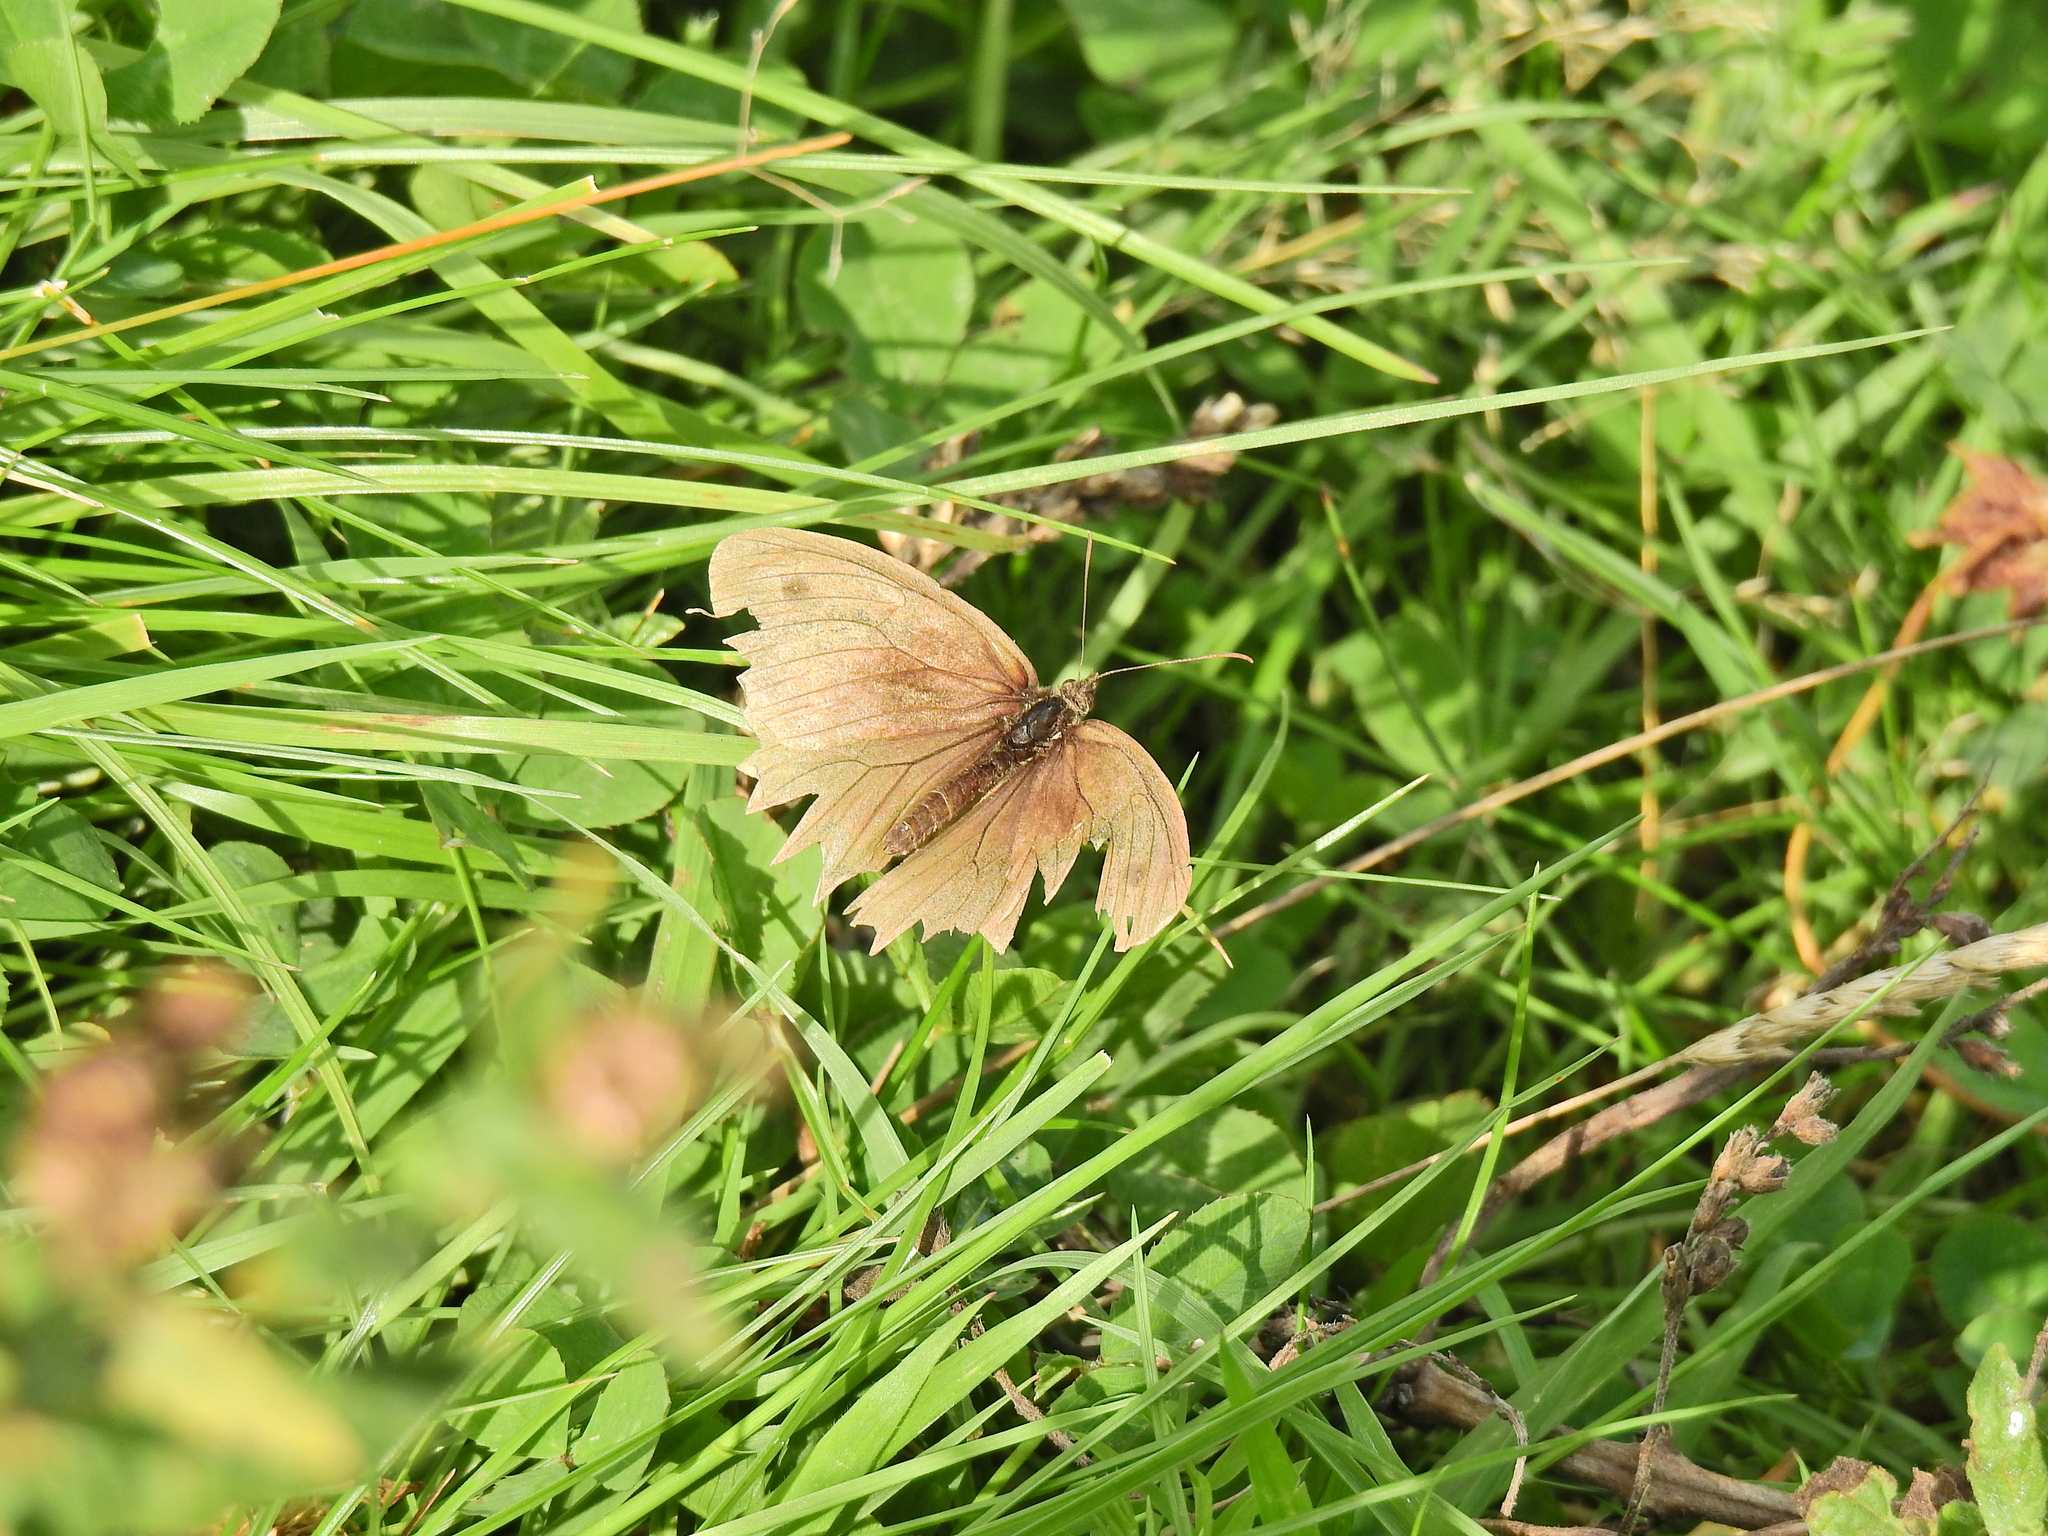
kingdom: Animalia
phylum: Arthropoda
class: Insecta
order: Lepidoptera
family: Nymphalidae
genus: Maniola
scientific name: Maniola jurtina
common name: Meadow brown
